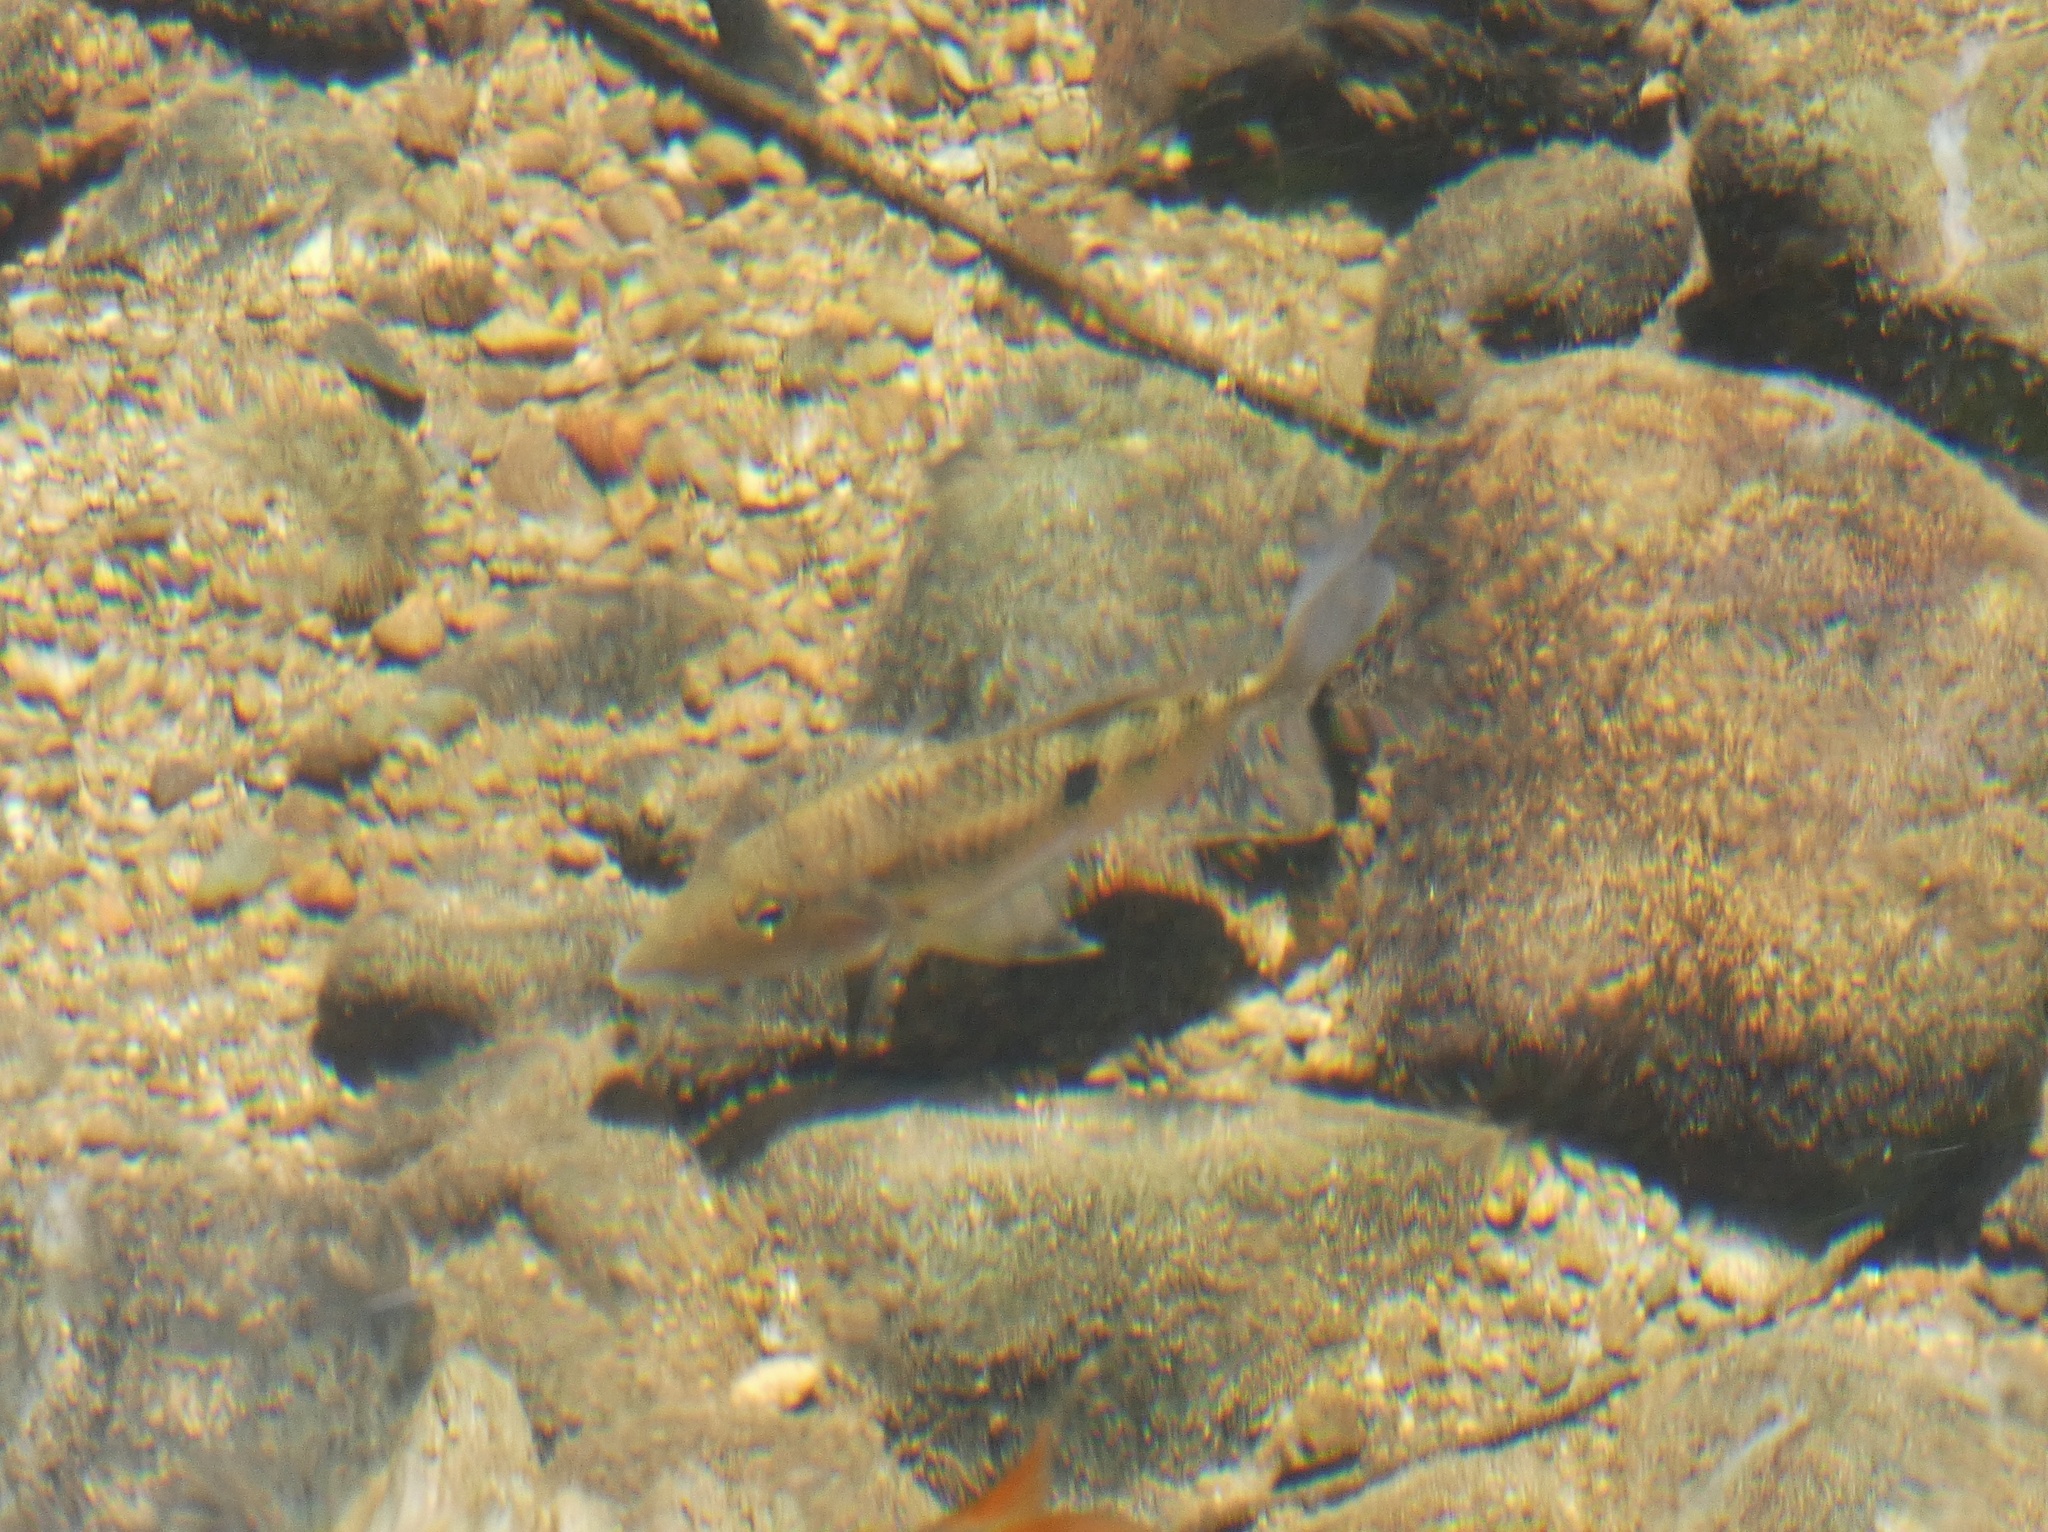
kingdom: Animalia
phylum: Chordata
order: Perciformes
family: Cichlidae
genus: Geophagus
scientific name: Geophagus crassilabris
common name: Panamanian eartheater
